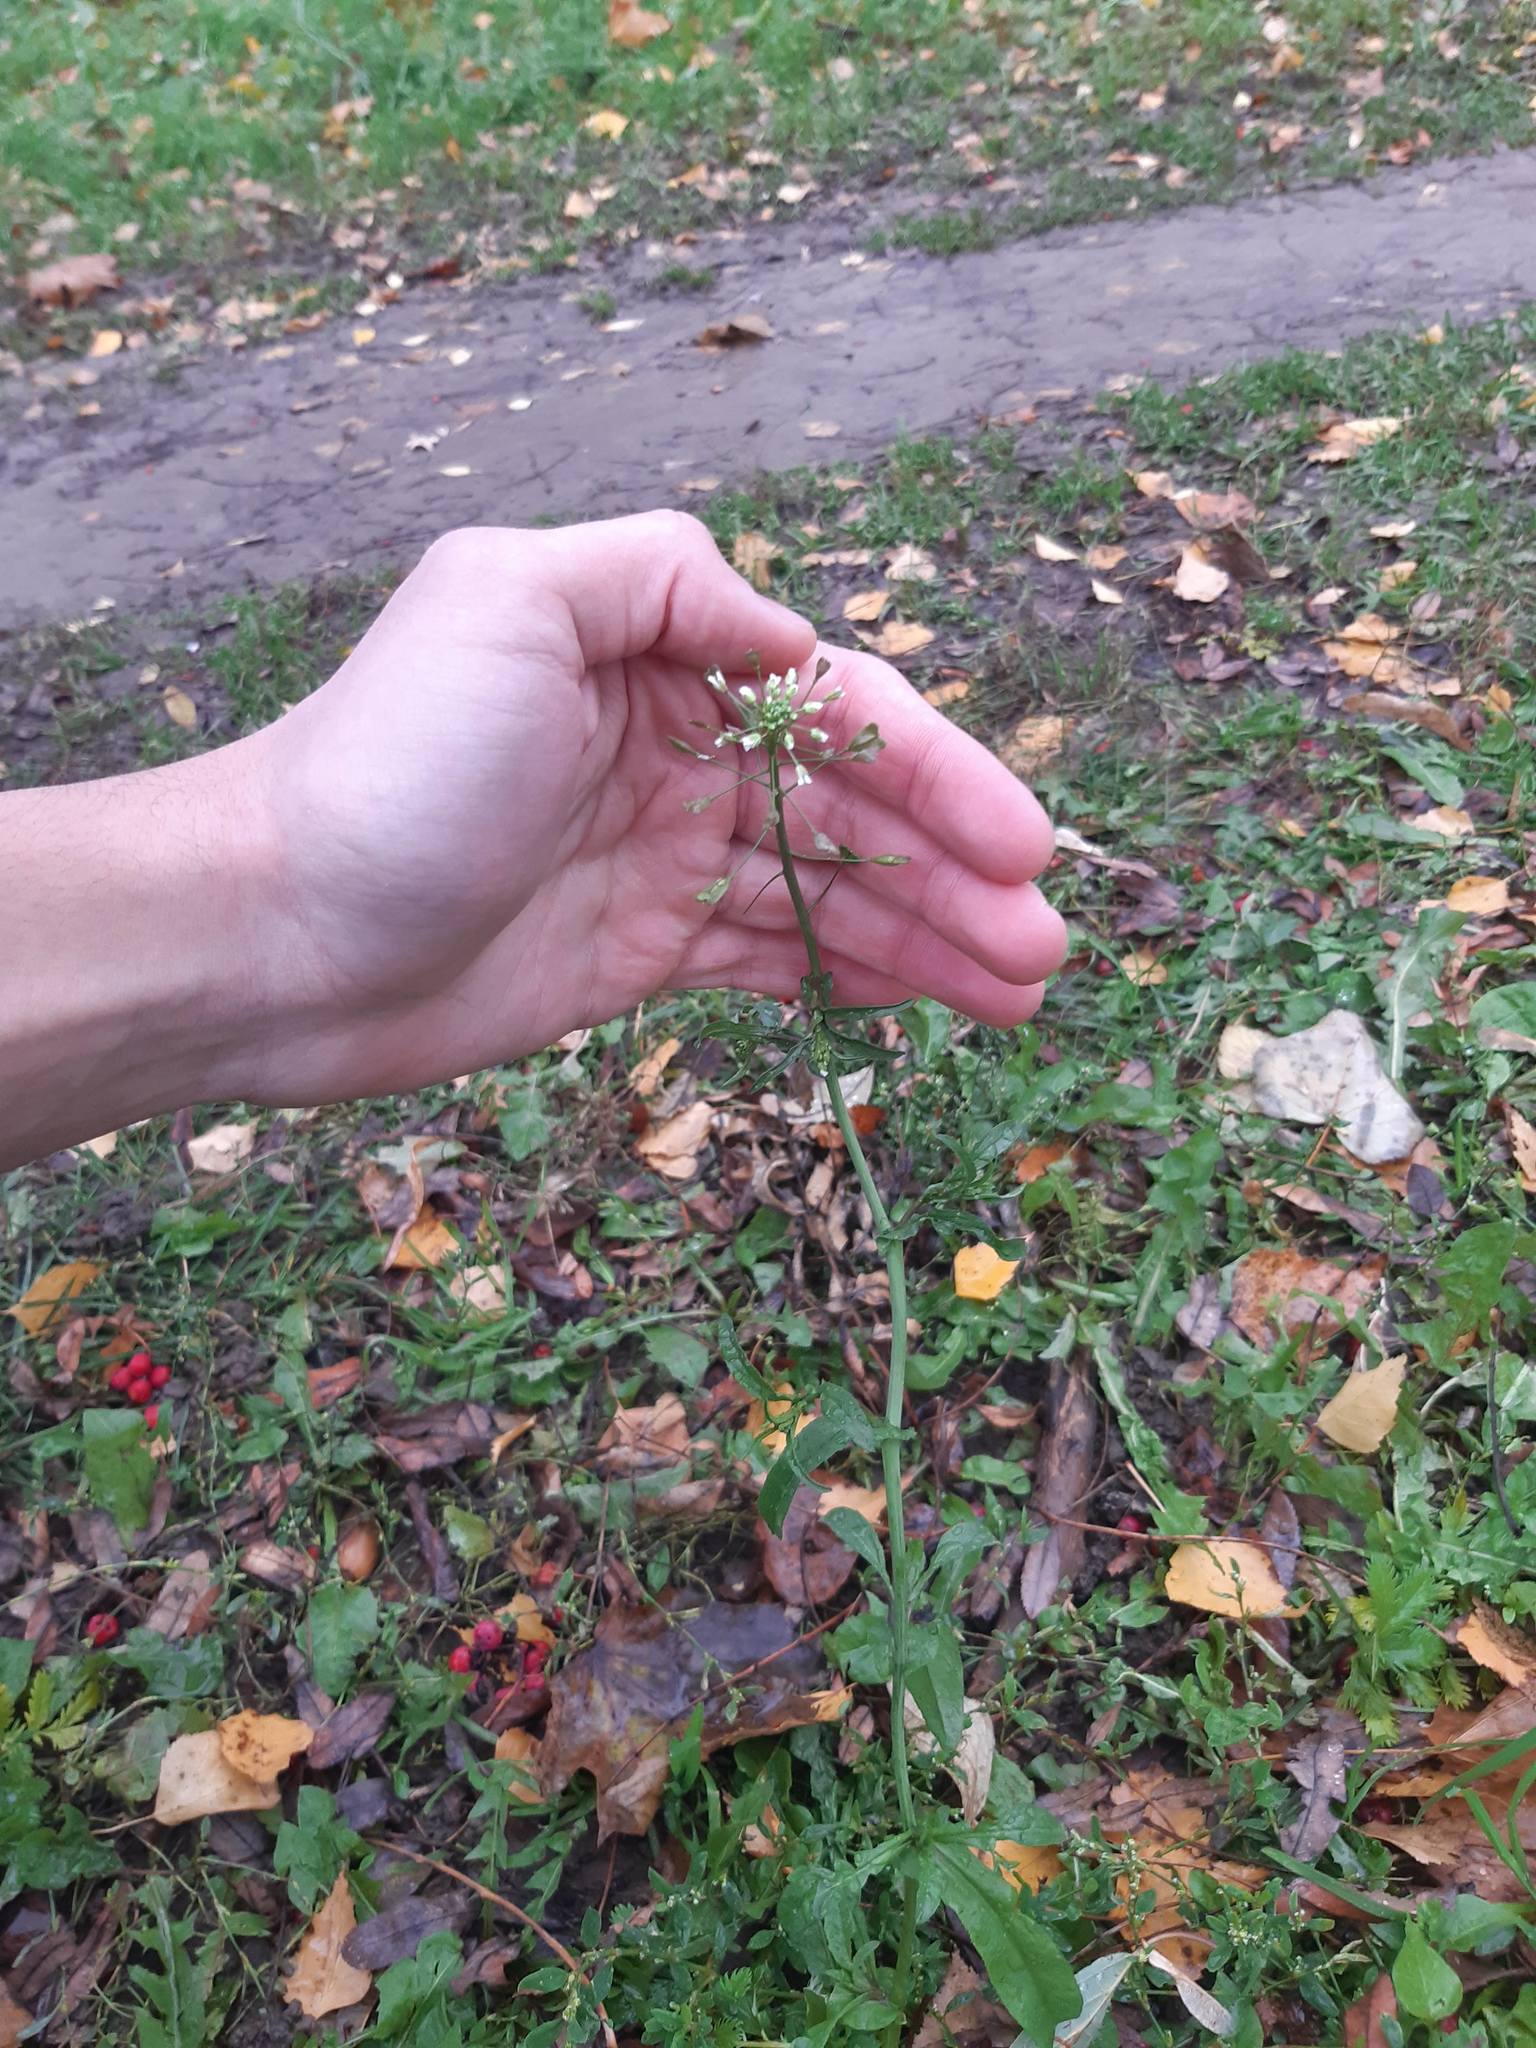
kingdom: Plantae
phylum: Tracheophyta
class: Magnoliopsida
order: Brassicales
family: Brassicaceae
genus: Capsella
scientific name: Capsella bursa-pastoris
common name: Shepherd's purse
